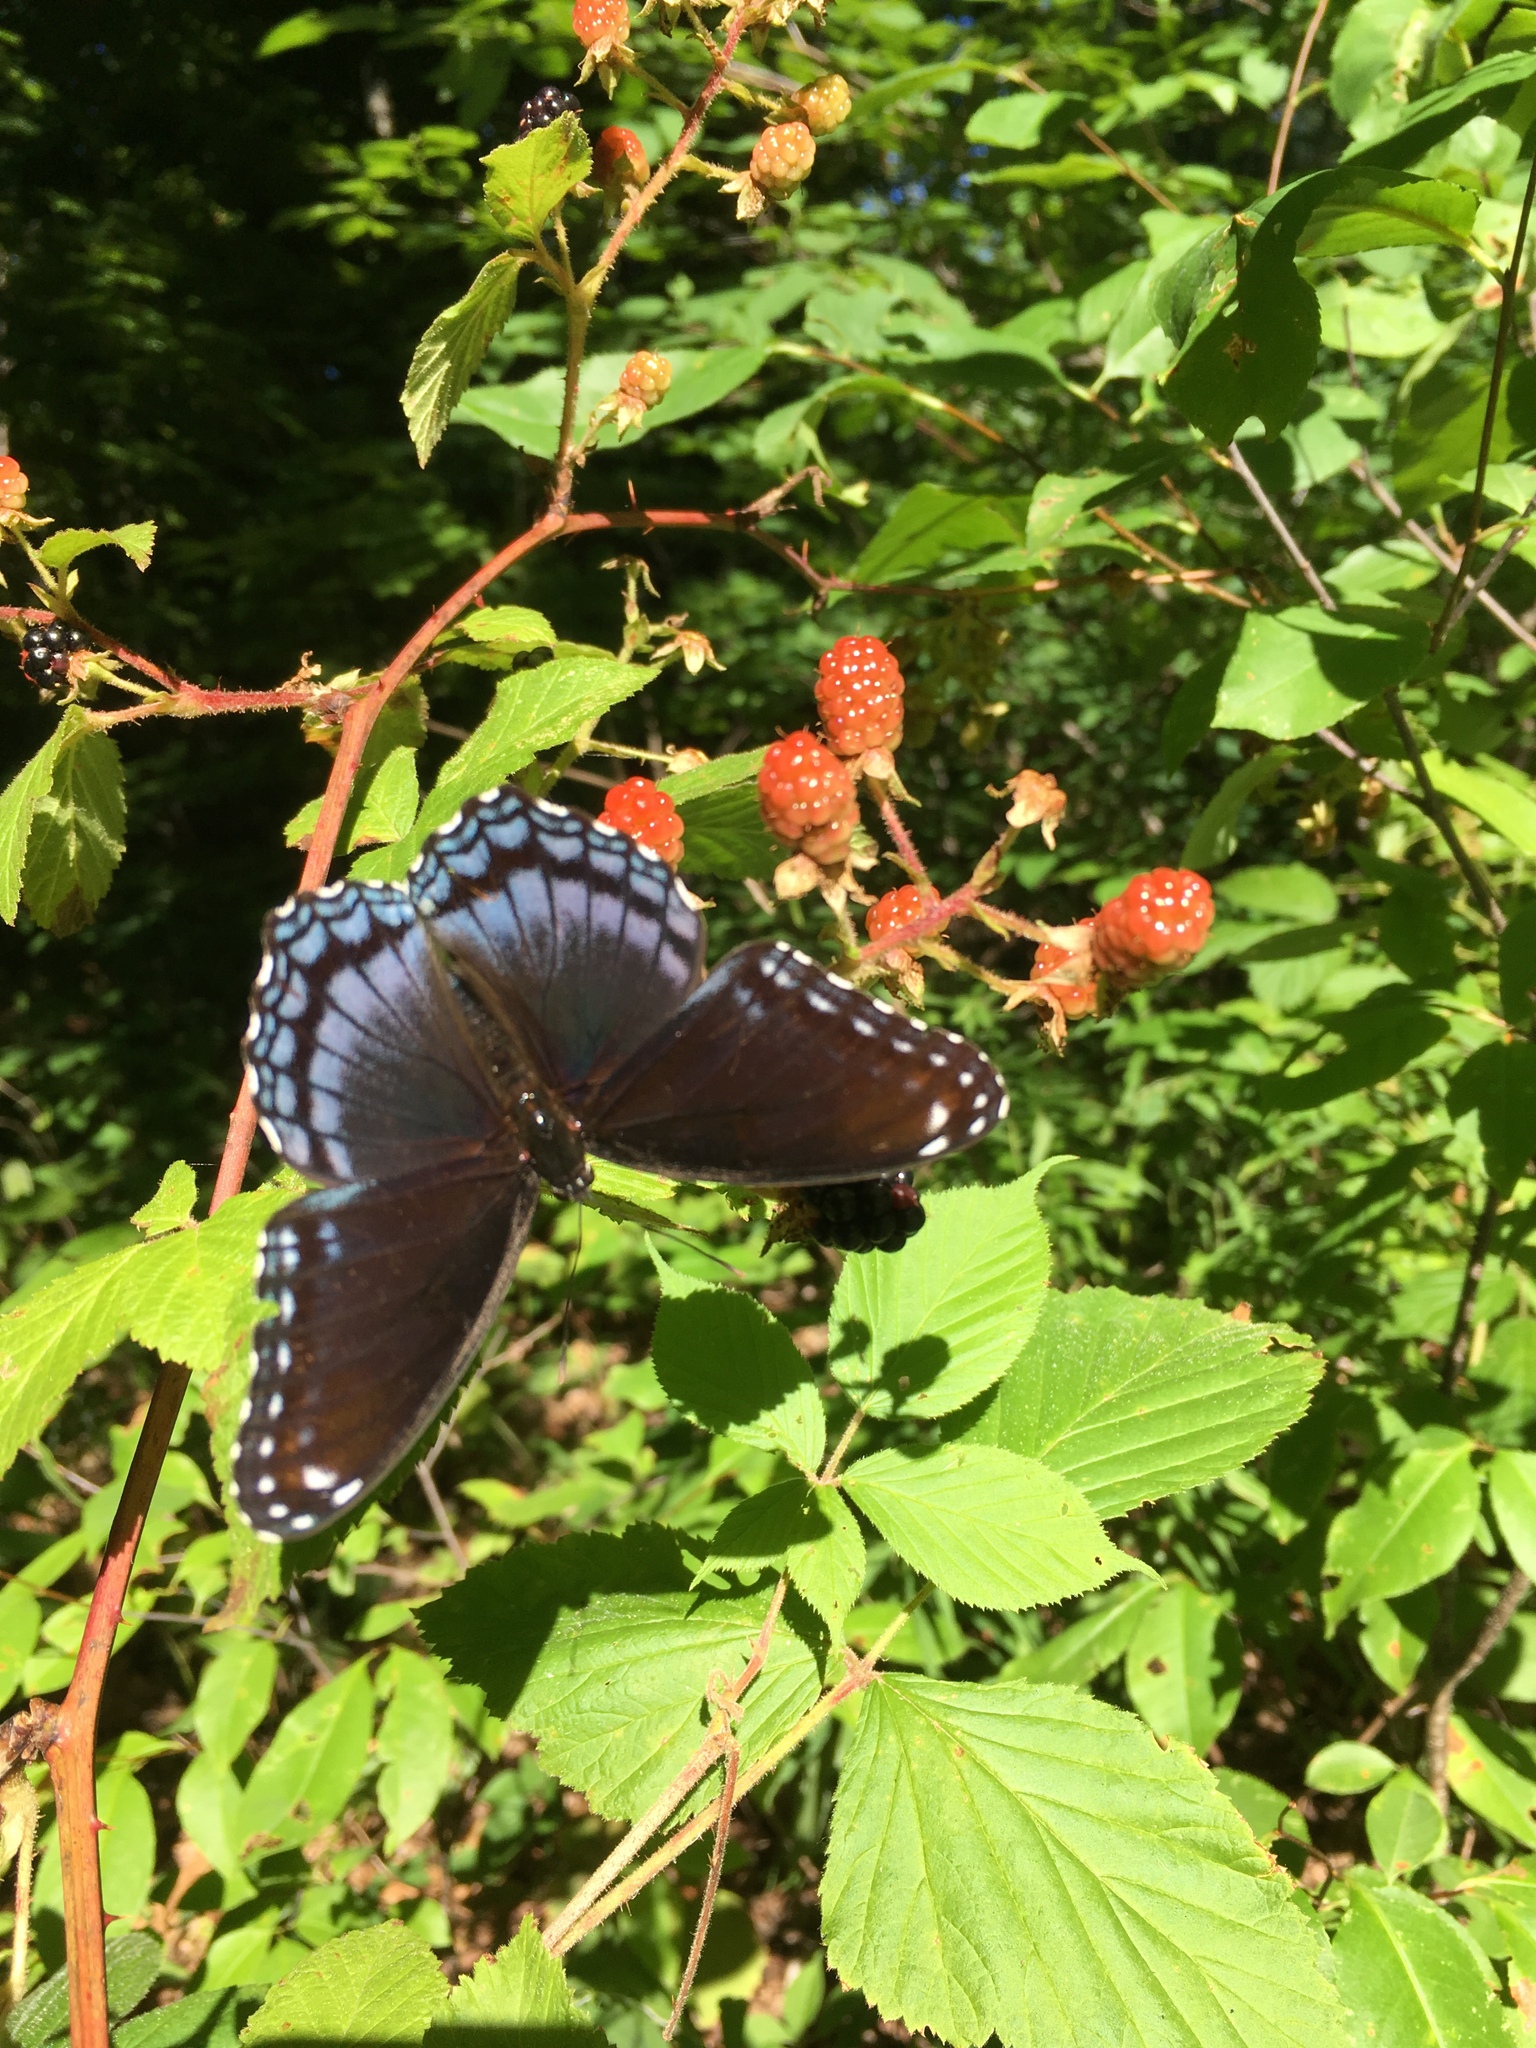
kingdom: Animalia
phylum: Arthropoda
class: Insecta
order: Lepidoptera
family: Nymphalidae
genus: Limenitis
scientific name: Limenitis astyanax
